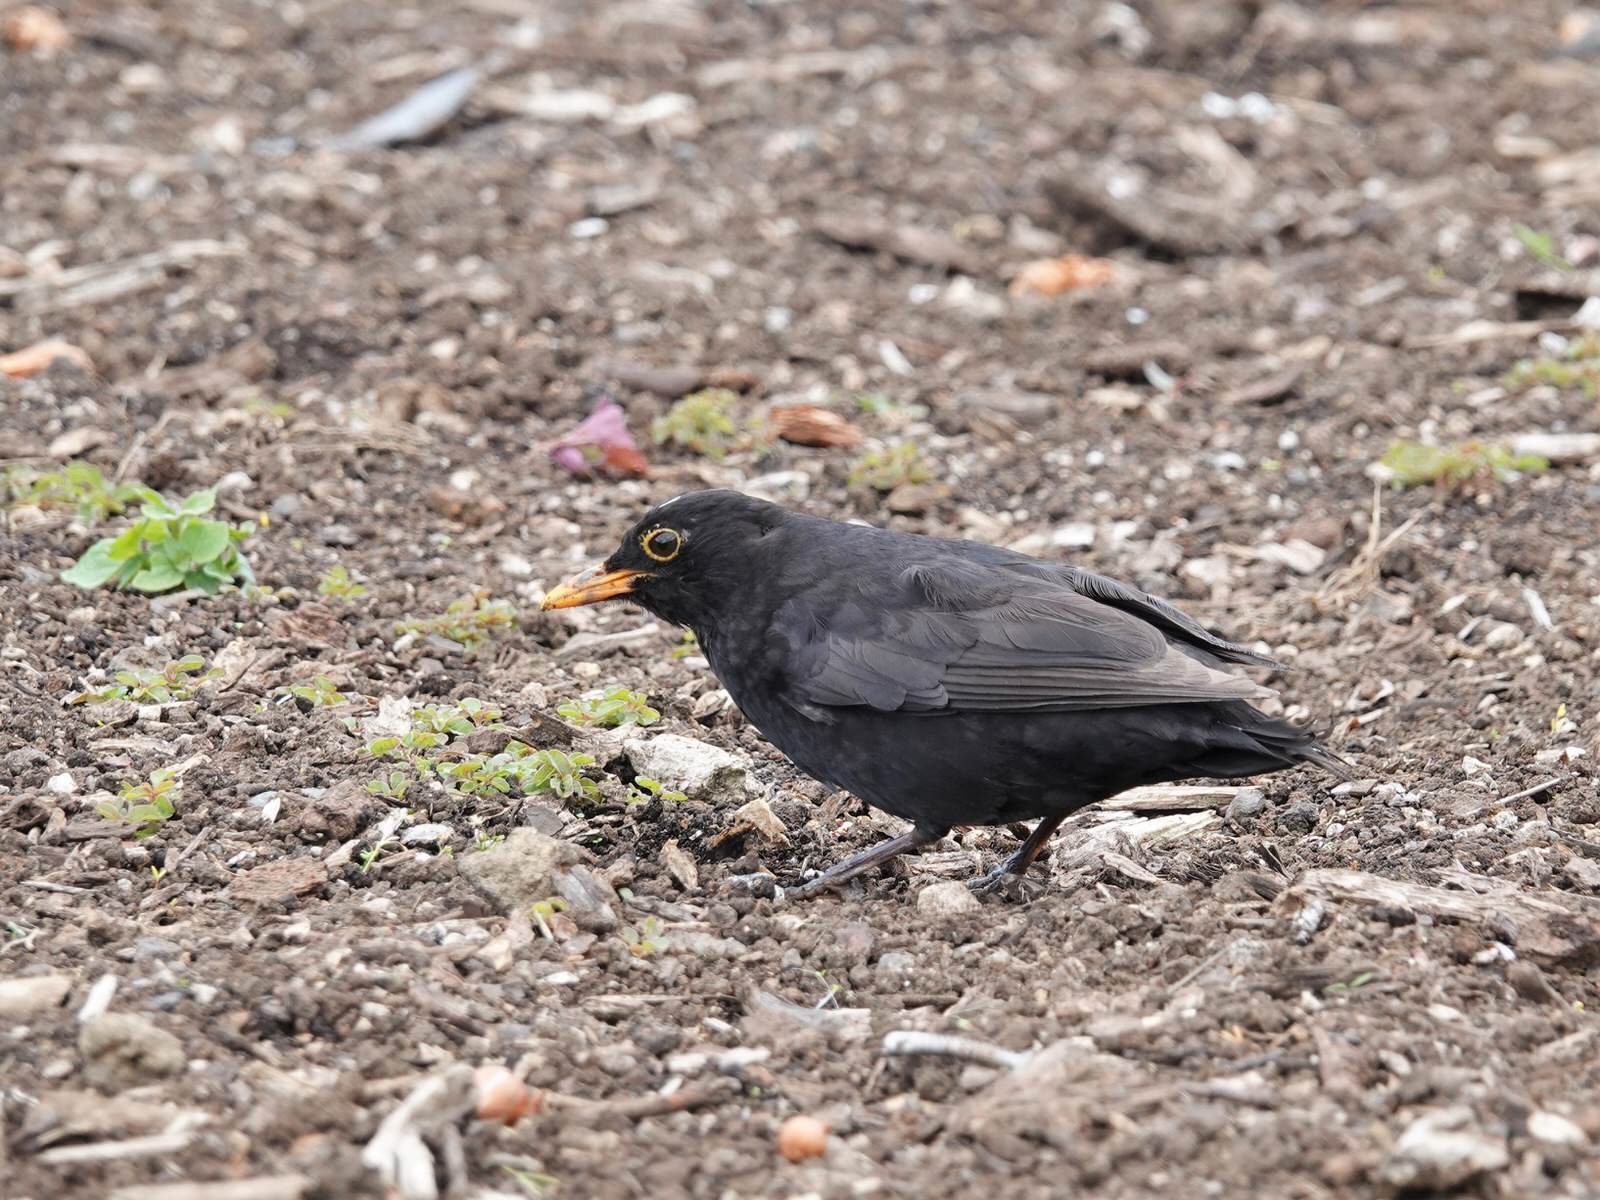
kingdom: Animalia
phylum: Chordata
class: Aves
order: Passeriformes
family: Turdidae
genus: Turdus
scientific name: Turdus merula
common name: Common blackbird
